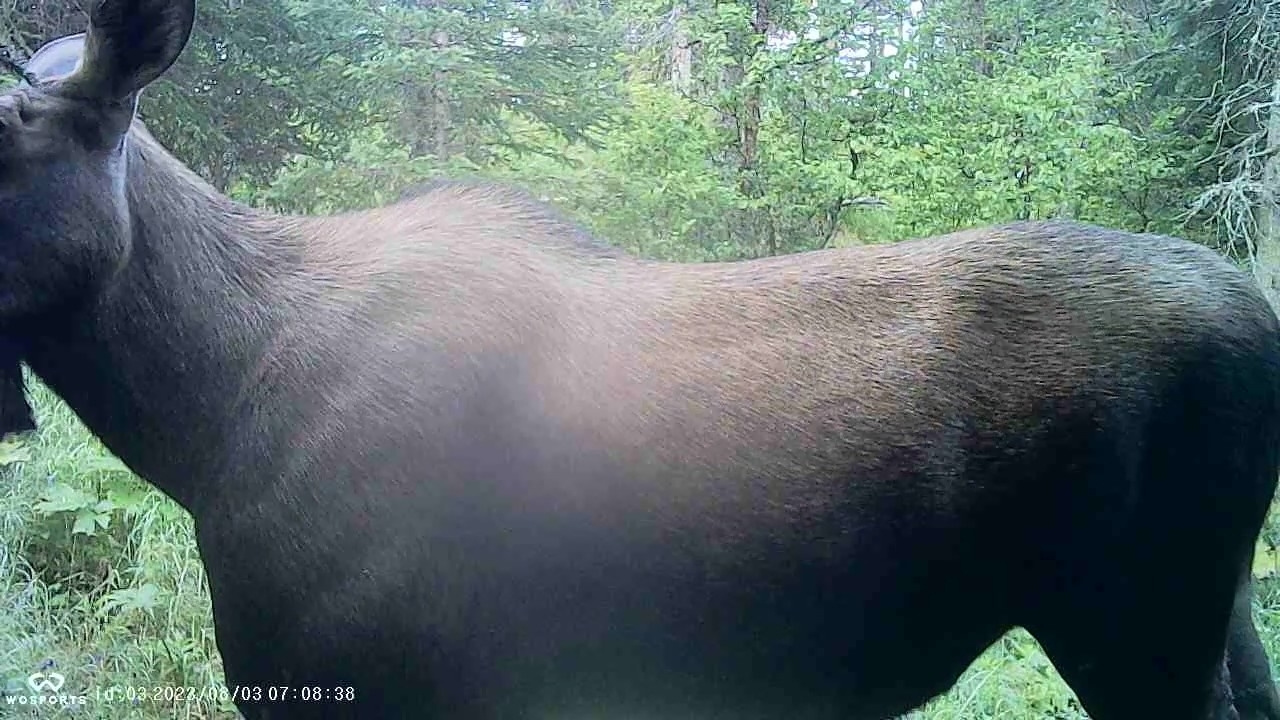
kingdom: Animalia
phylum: Chordata
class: Mammalia
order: Artiodactyla
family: Cervidae
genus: Alces
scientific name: Alces alces
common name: Moose
